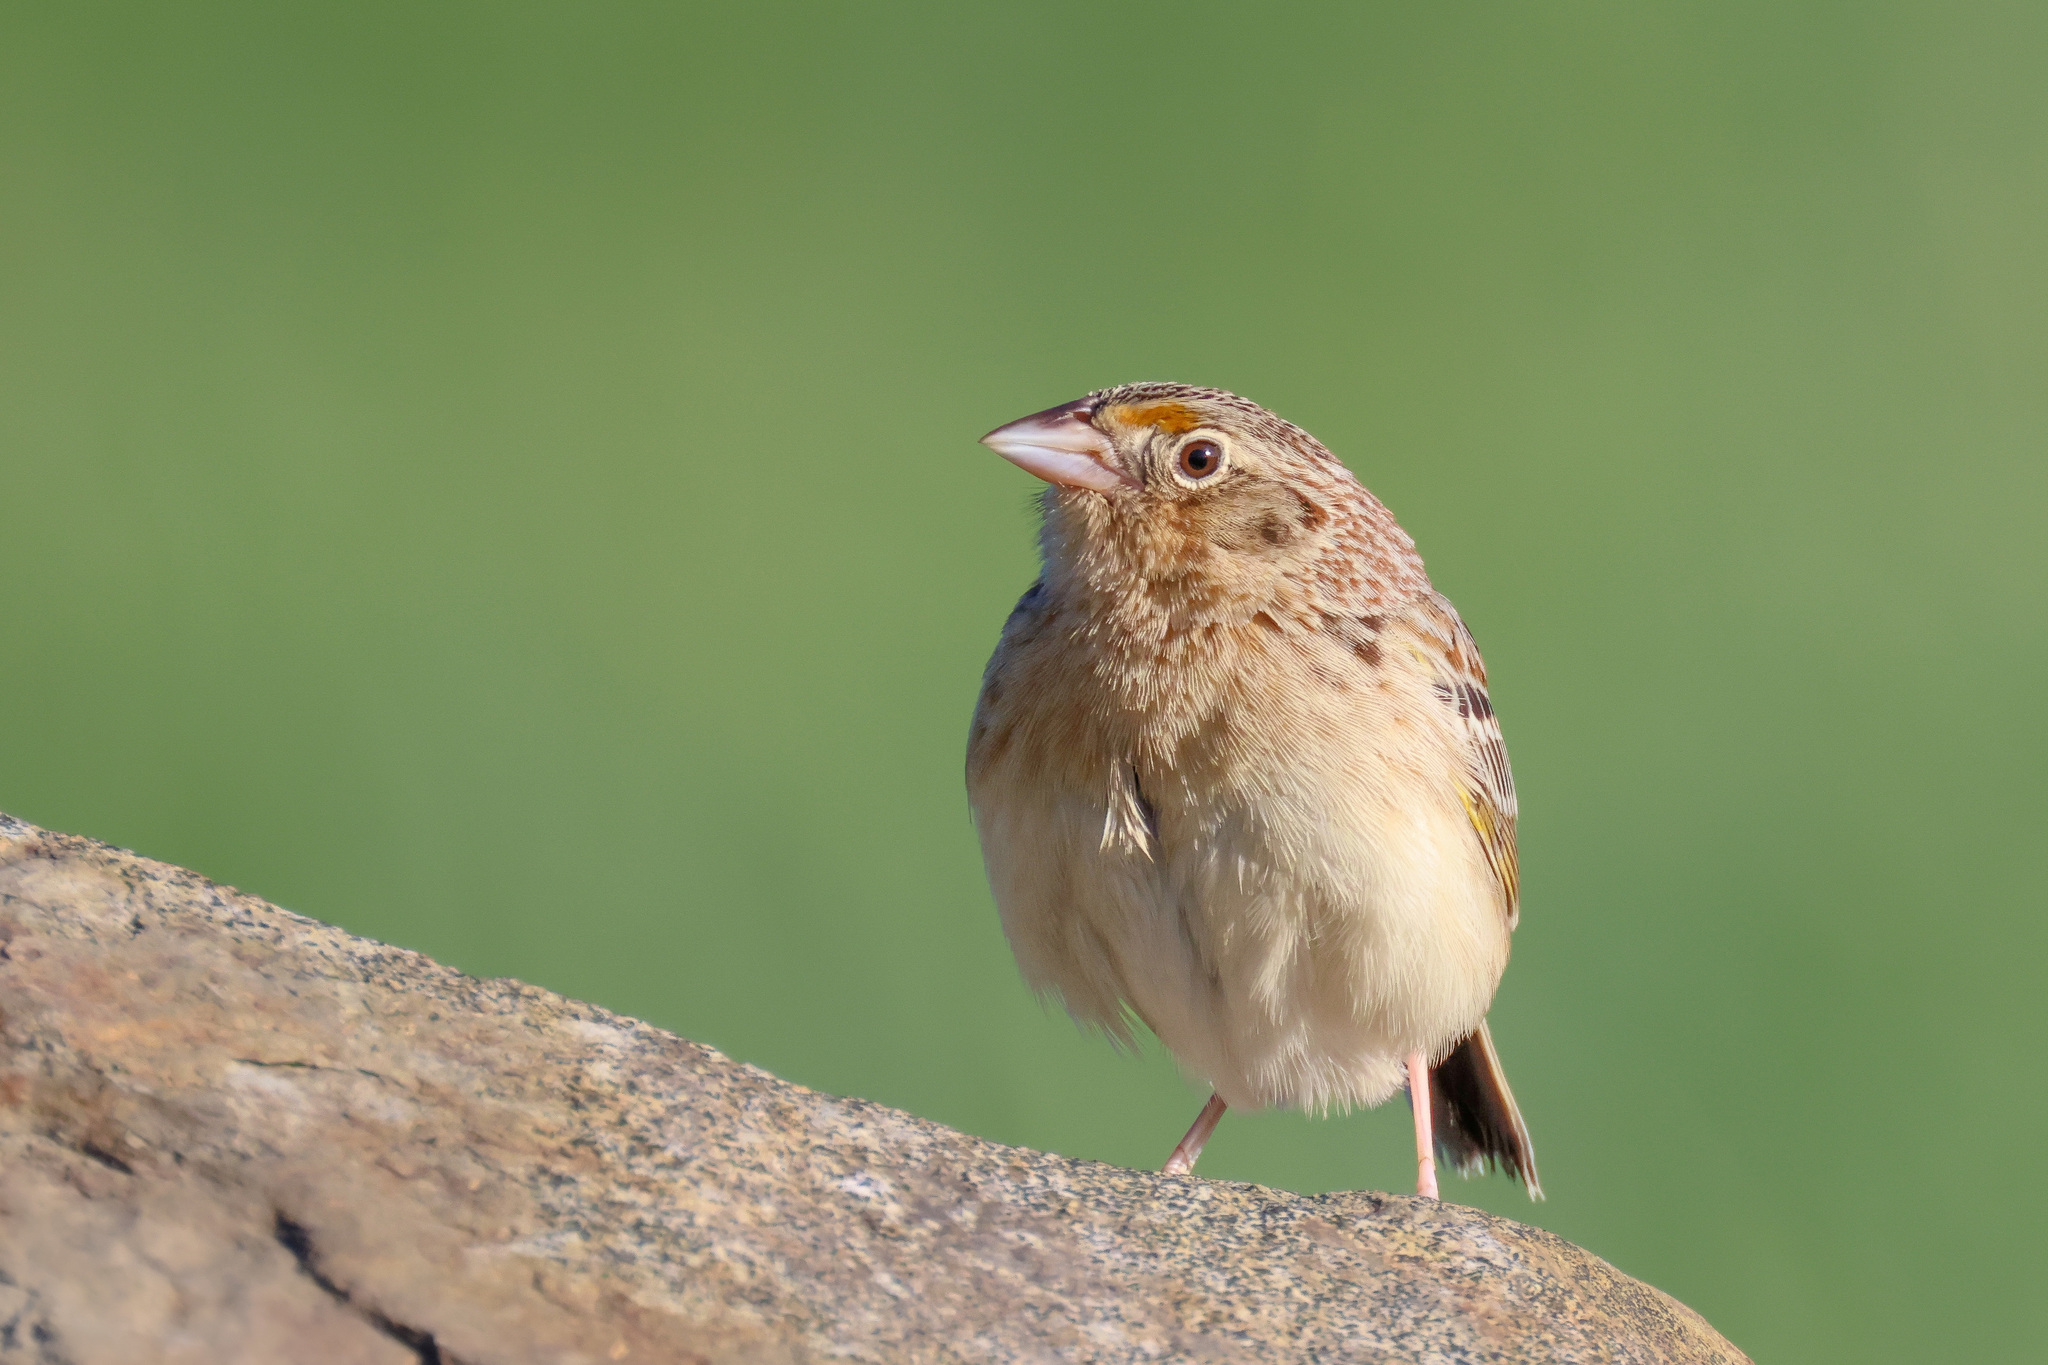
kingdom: Animalia
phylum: Chordata
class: Aves
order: Passeriformes
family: Passerellidae
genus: Ammodramus
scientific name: Ammodramus savannarum
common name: Grasshopper sparrow
